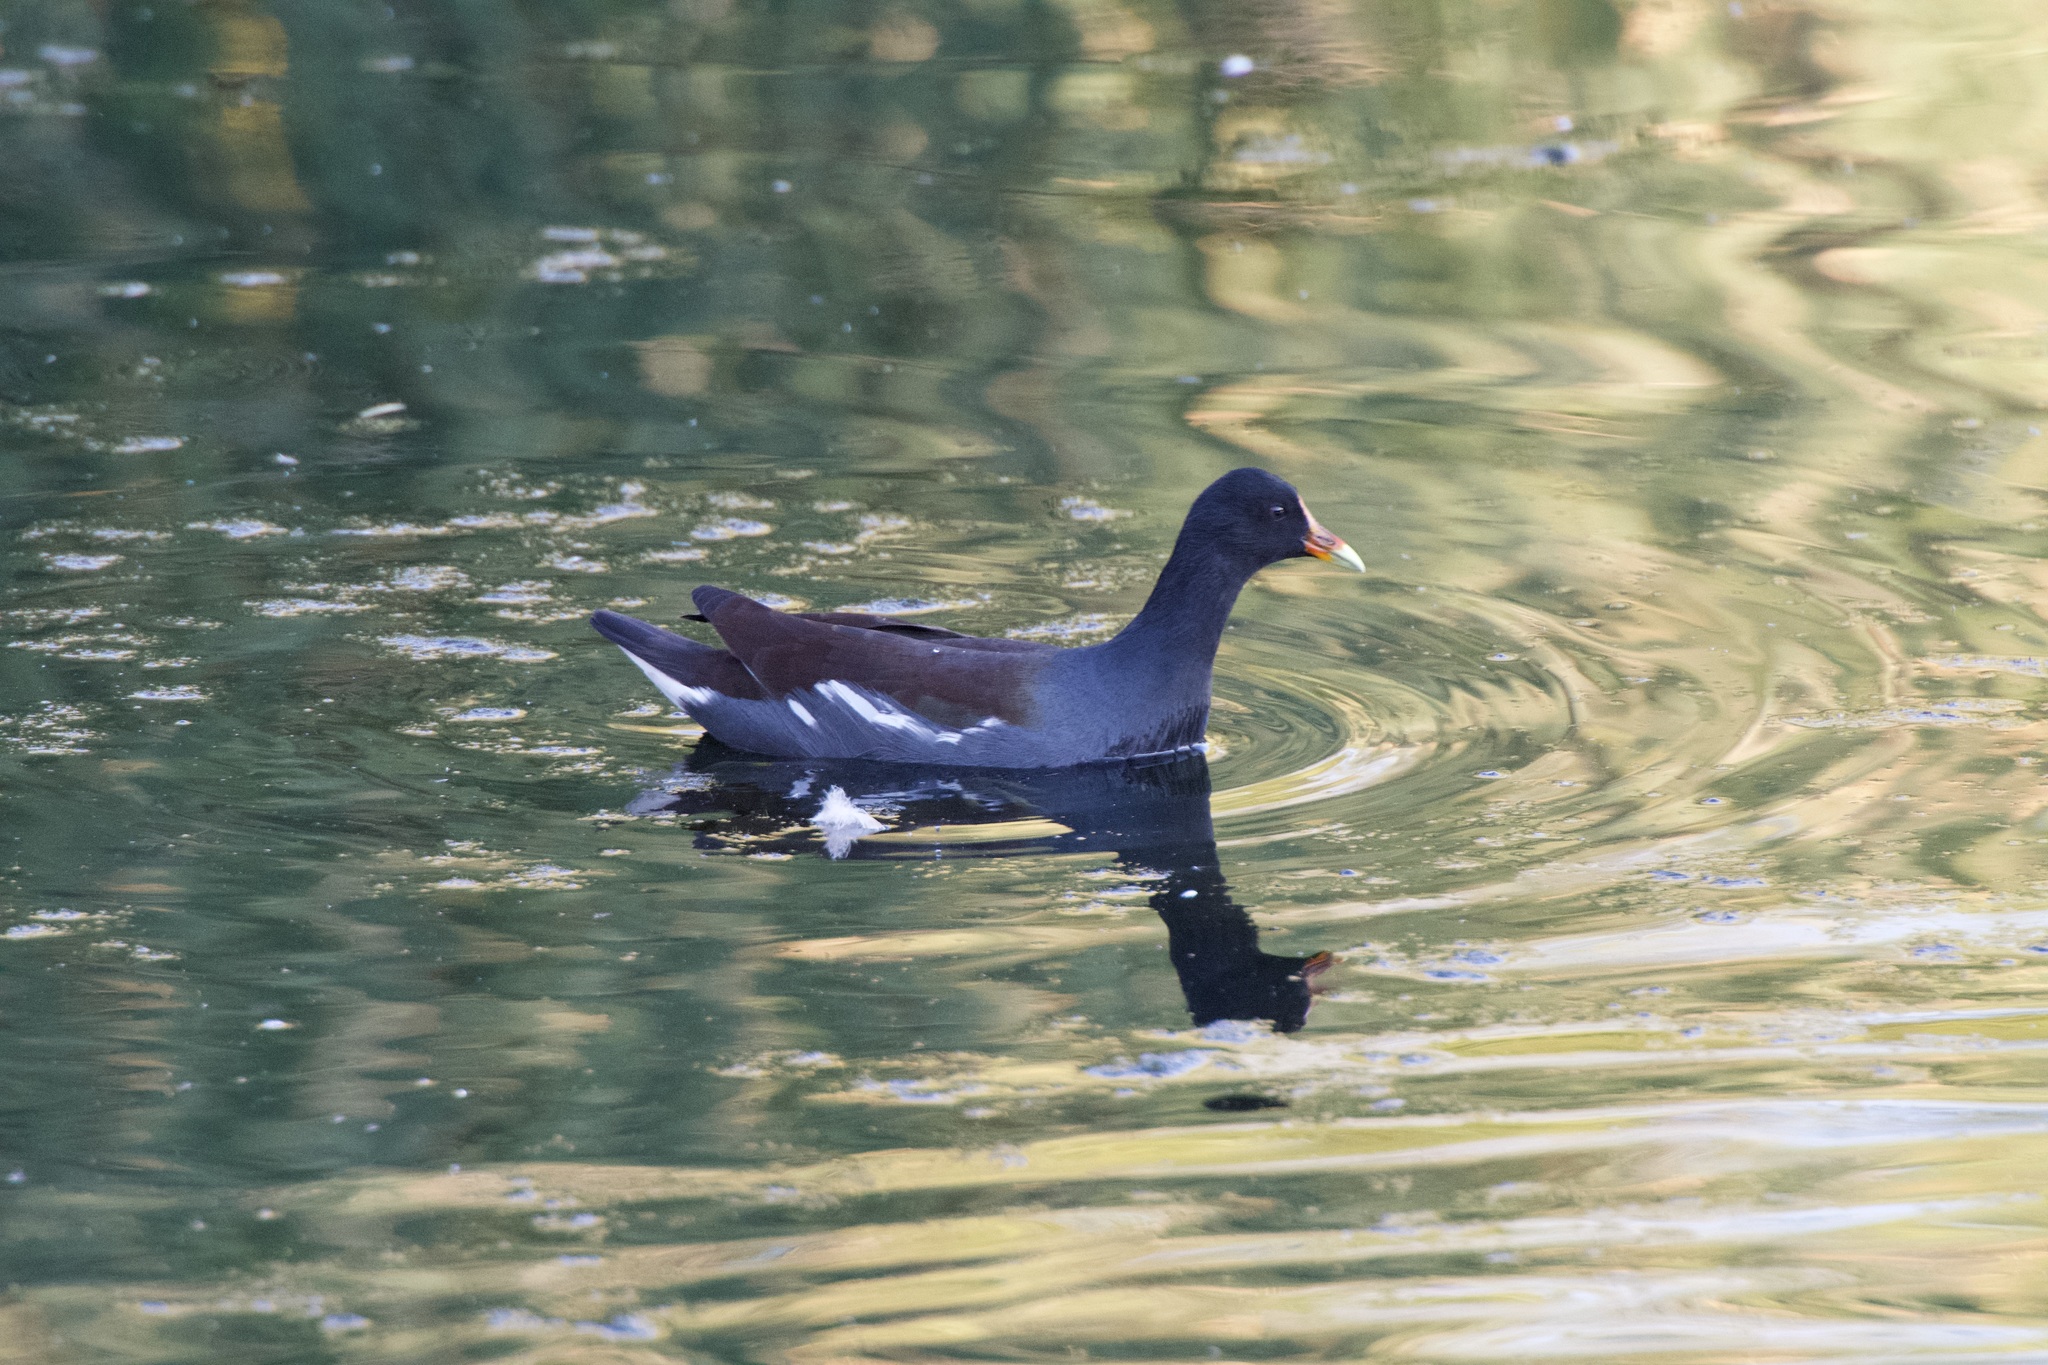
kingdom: Animalia
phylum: Chordata
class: Aves
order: Gruiformes
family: Rallidae
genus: Gallinula
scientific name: Gallinula chloropus
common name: Common moorhen
